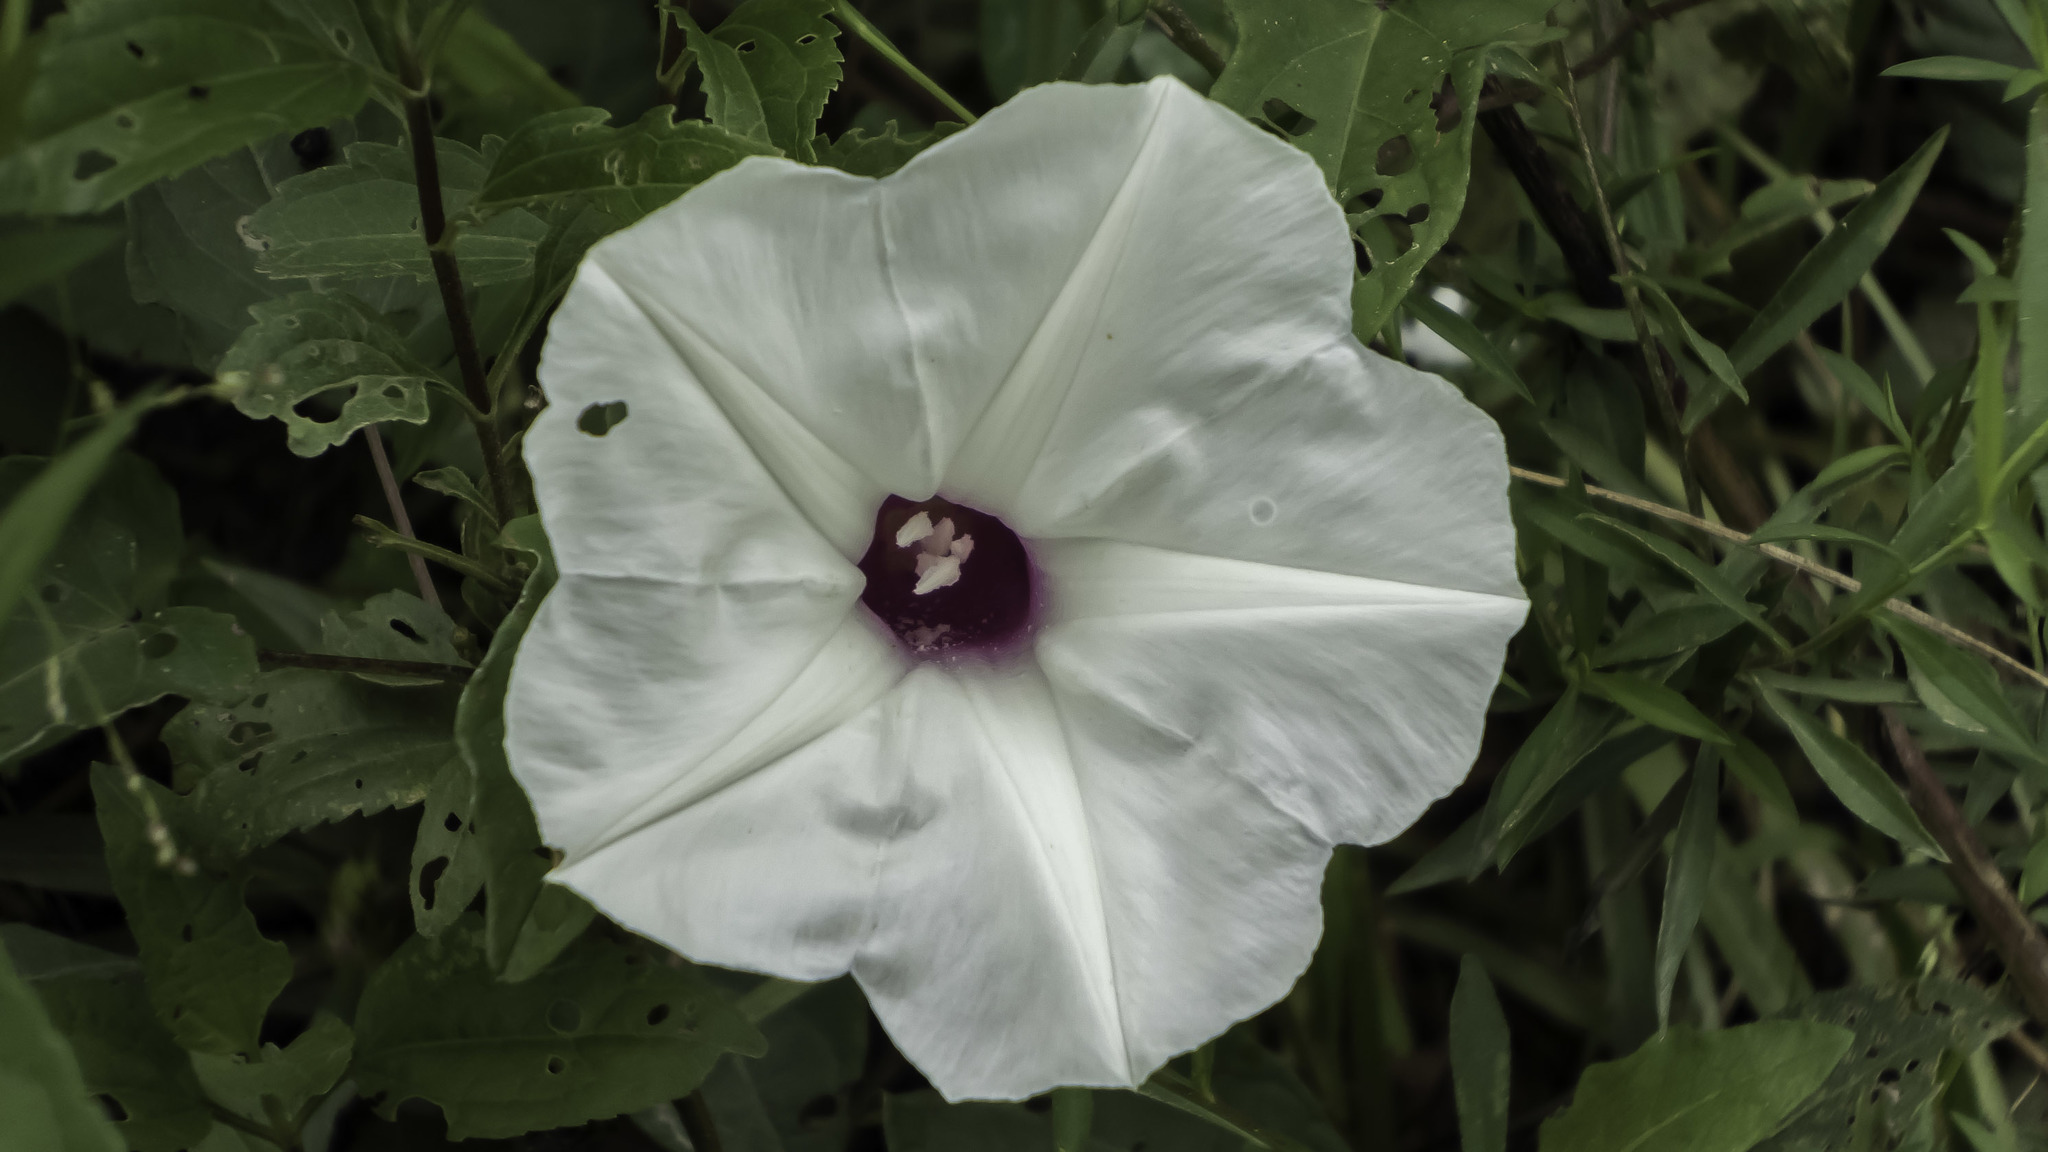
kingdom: Plantae
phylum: Tracheophyta
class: Magnoliopsida
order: Solanales
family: Convolvulaceae
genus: Ipomoea
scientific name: Ipomoea pandurata
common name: Man-of-the-earth
